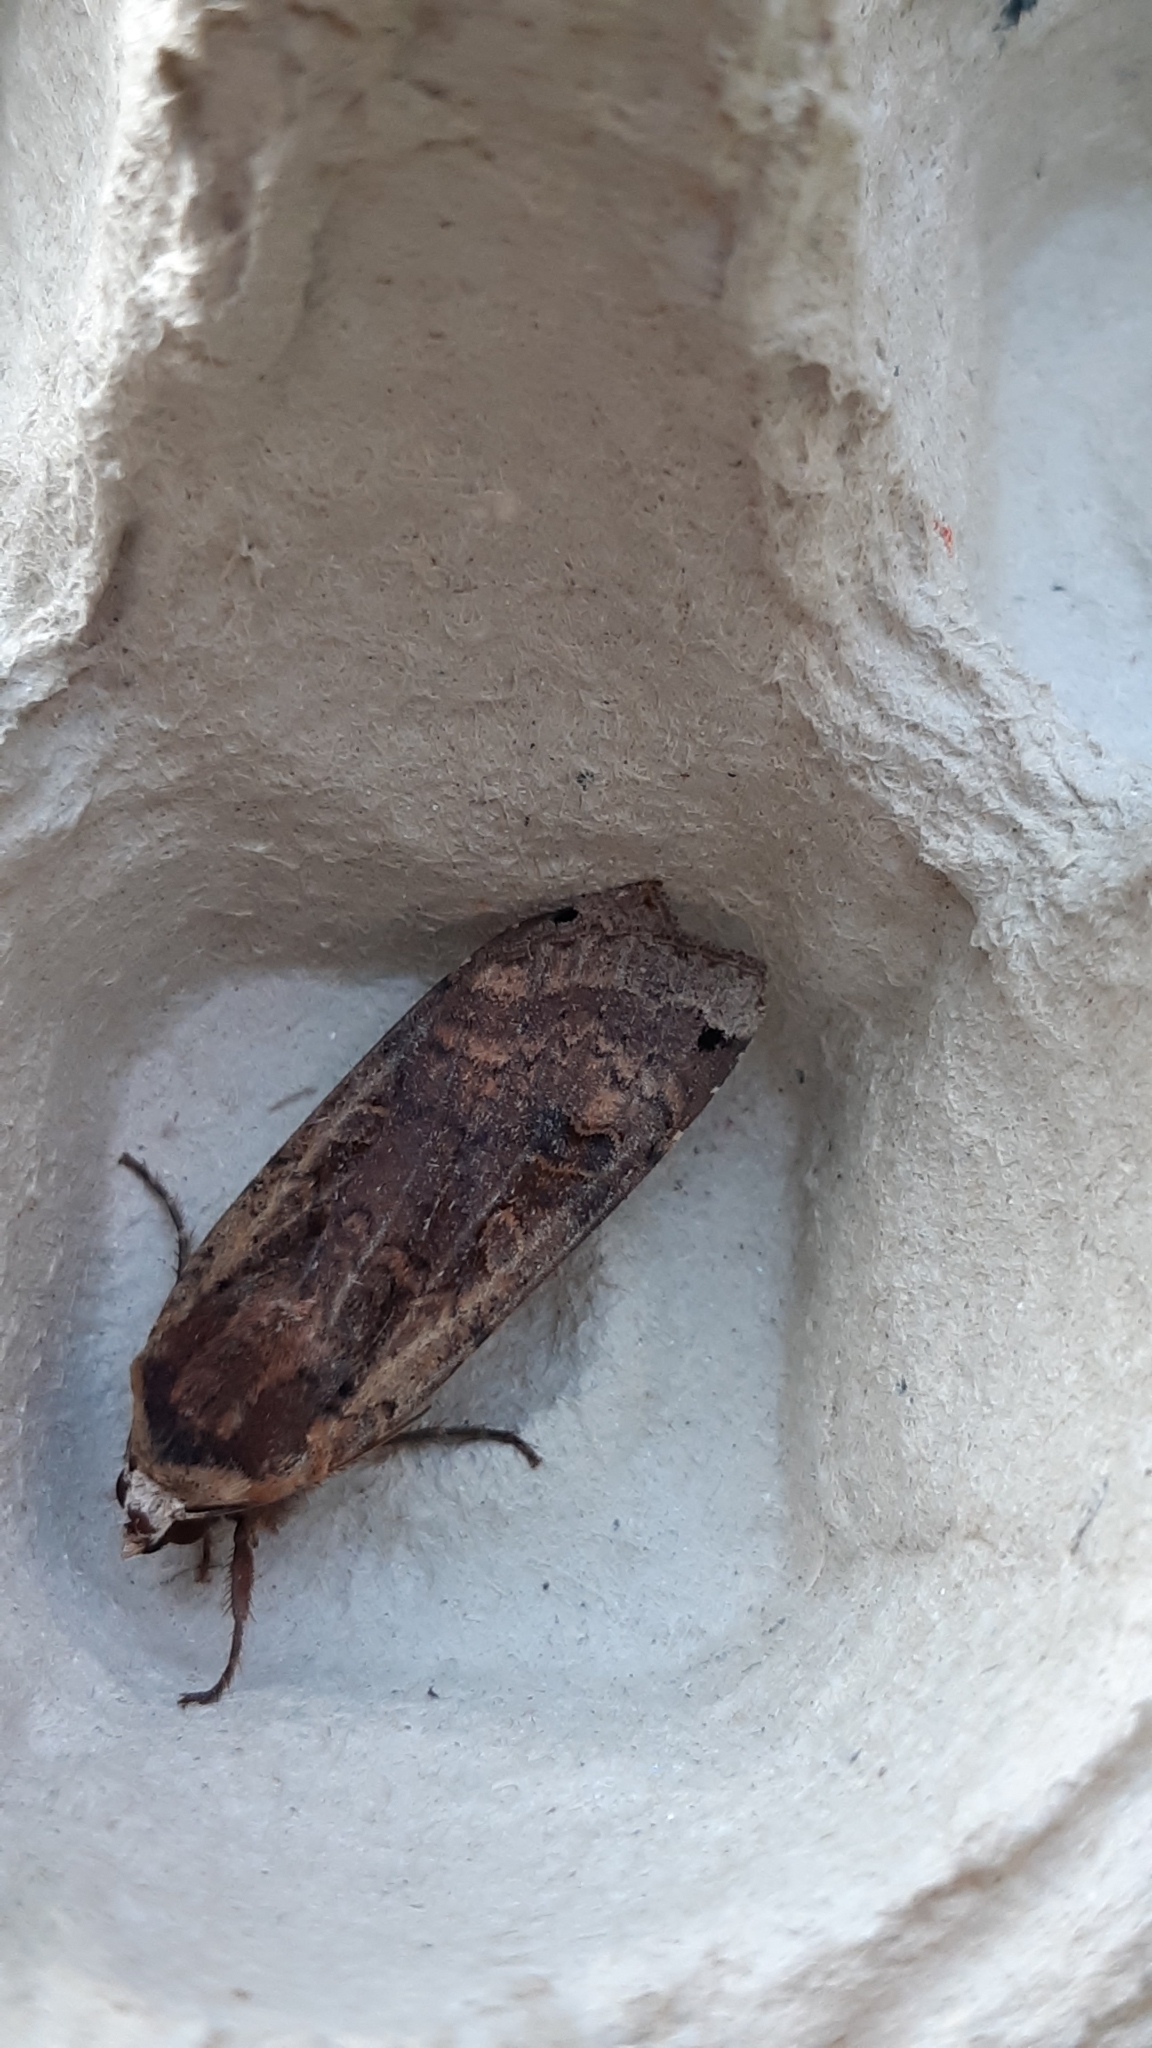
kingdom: Animalia
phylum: Arthropoda
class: Insecta
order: Lepidoptera
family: Noctuidae
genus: Noctua
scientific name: Noctua pronuba
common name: Large yellow underwing
